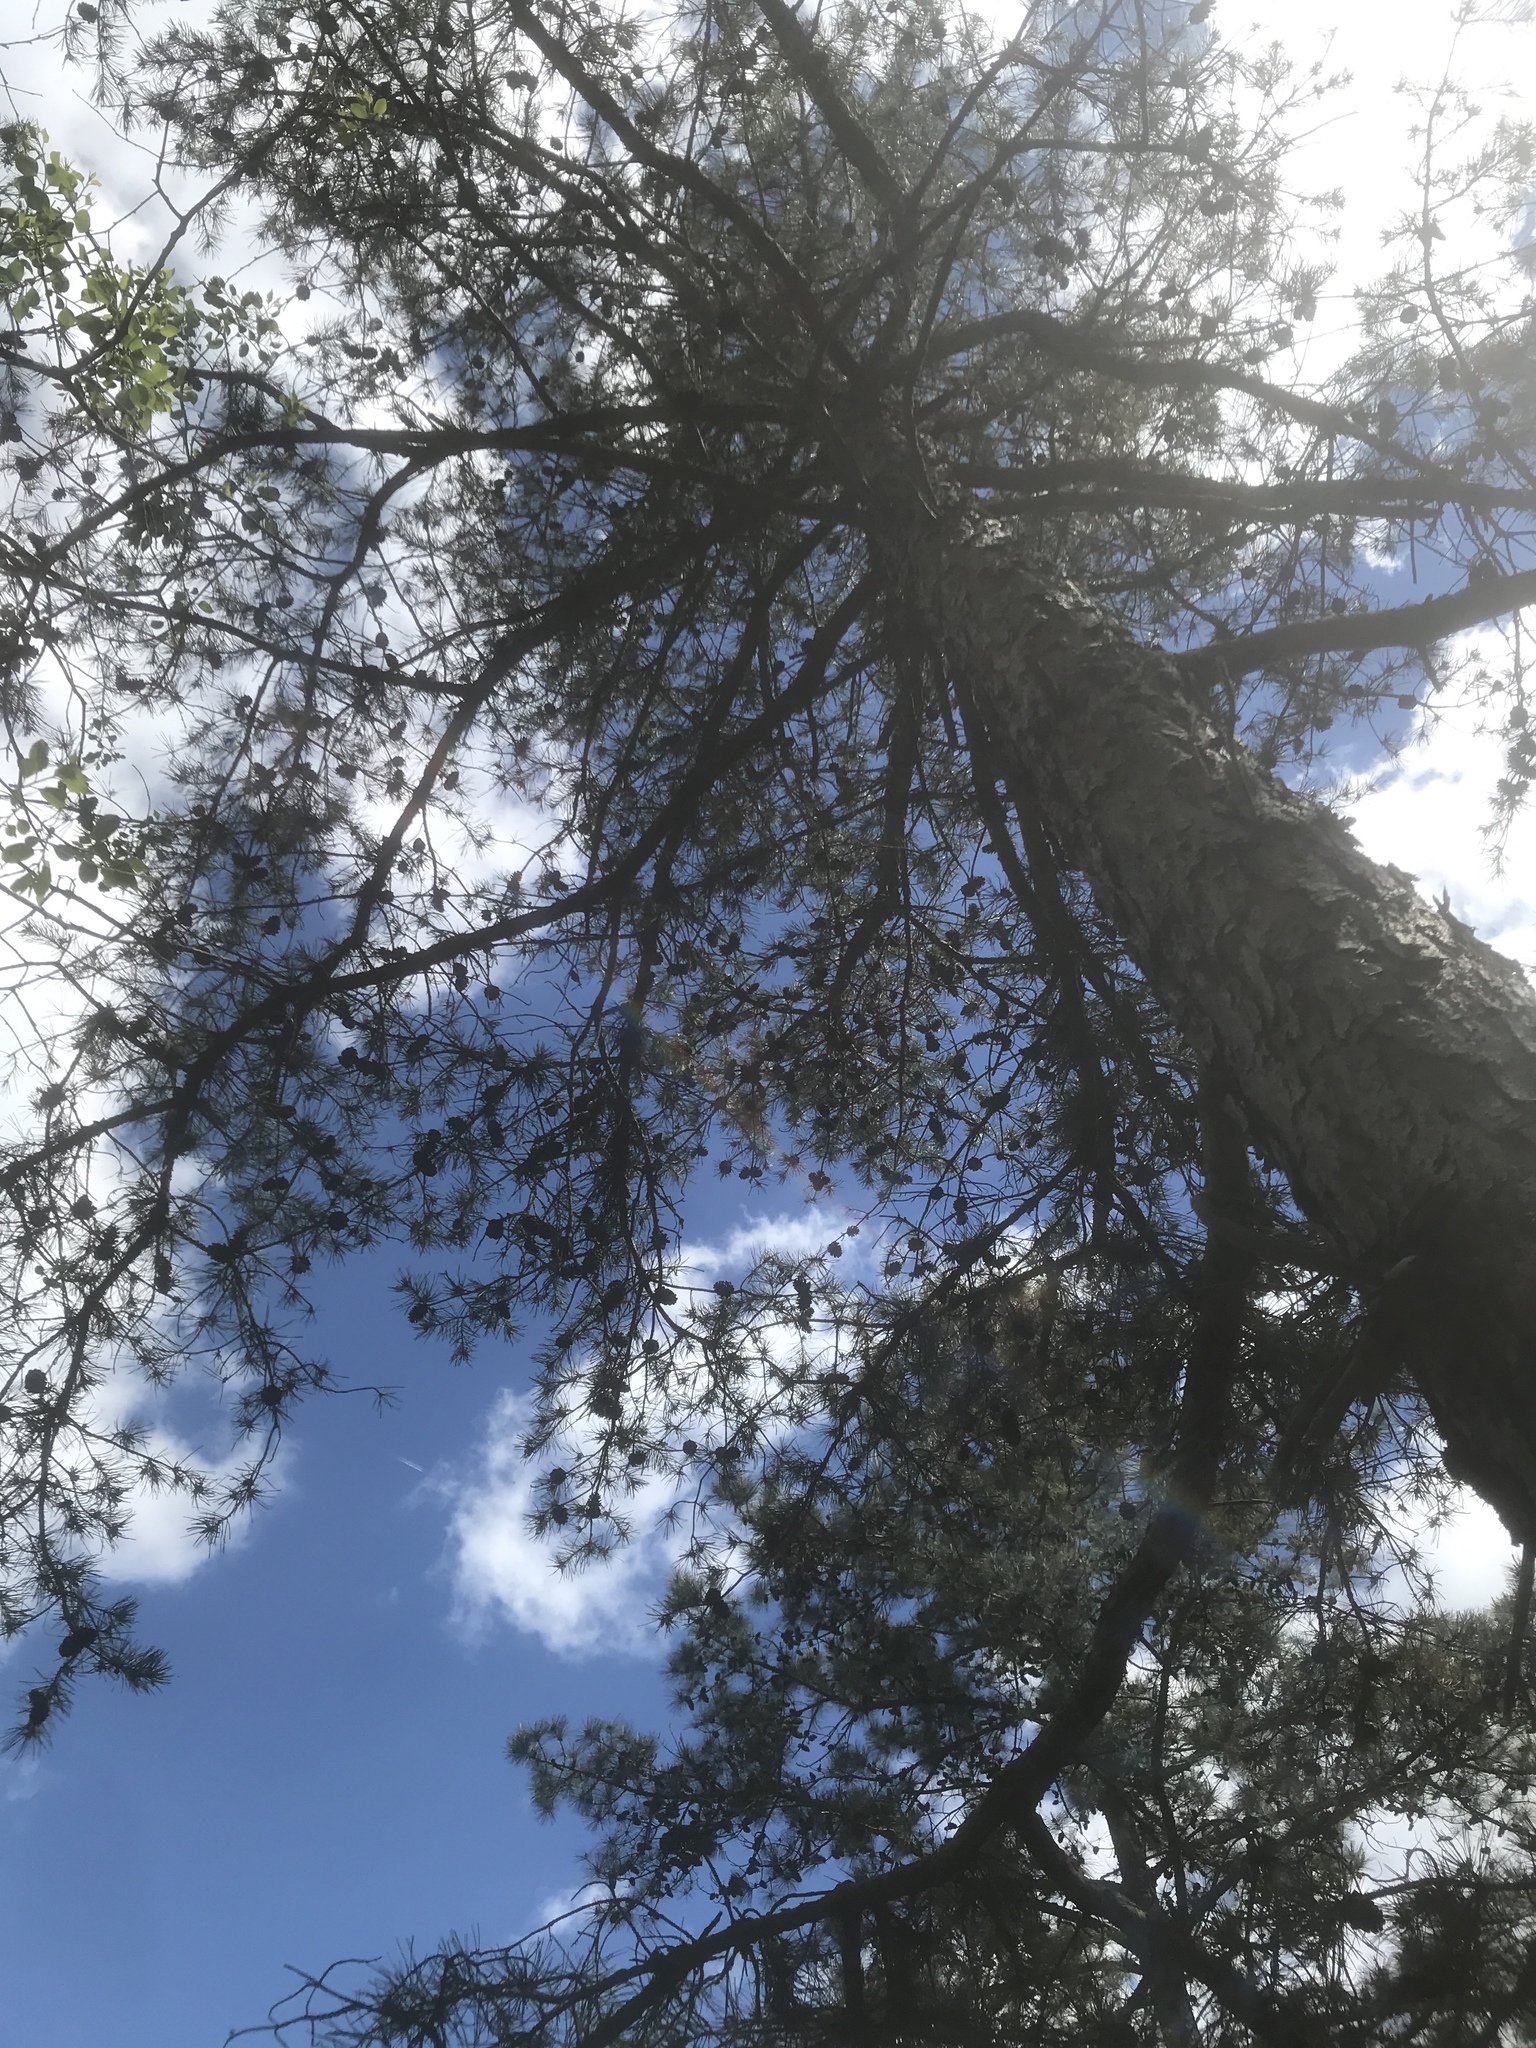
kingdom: Plantae
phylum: Tracheophyta
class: Pinopsida
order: Pinales
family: Pinaceae
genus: Pinus
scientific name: Pinus echinata
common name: Shortleaf pine
